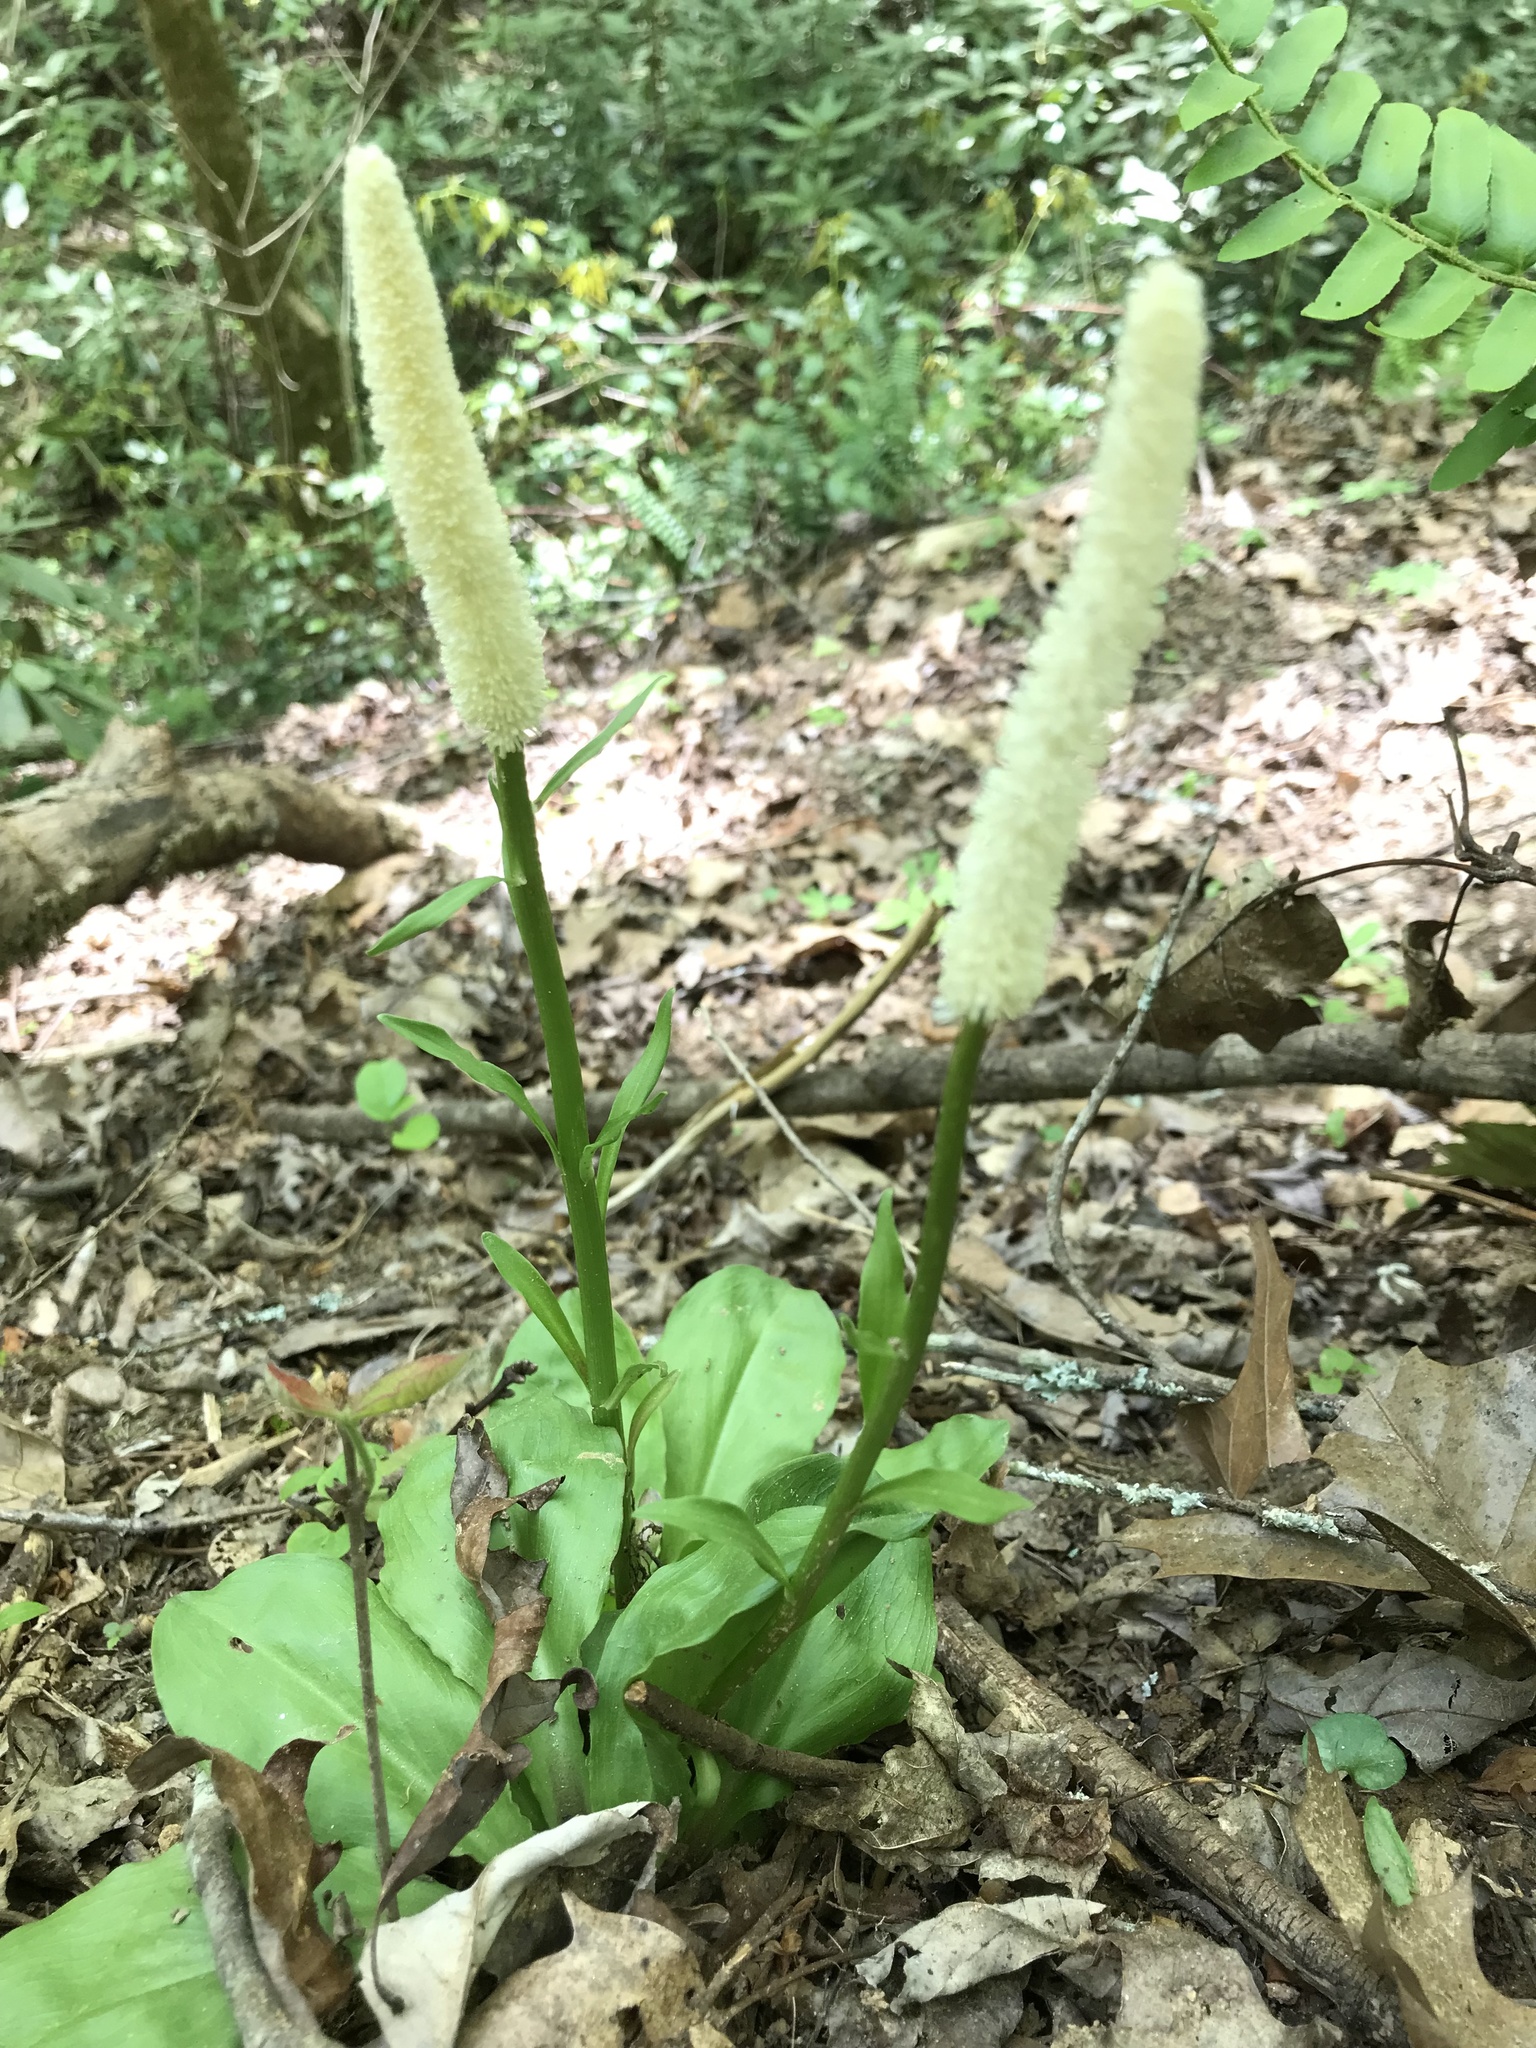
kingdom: Plantae
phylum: Tracheophyta
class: Liliopsida
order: Liliales
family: Melanthiaceae
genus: Chamaelirium
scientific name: Chamaelirium luteum
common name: Fairy-wand
